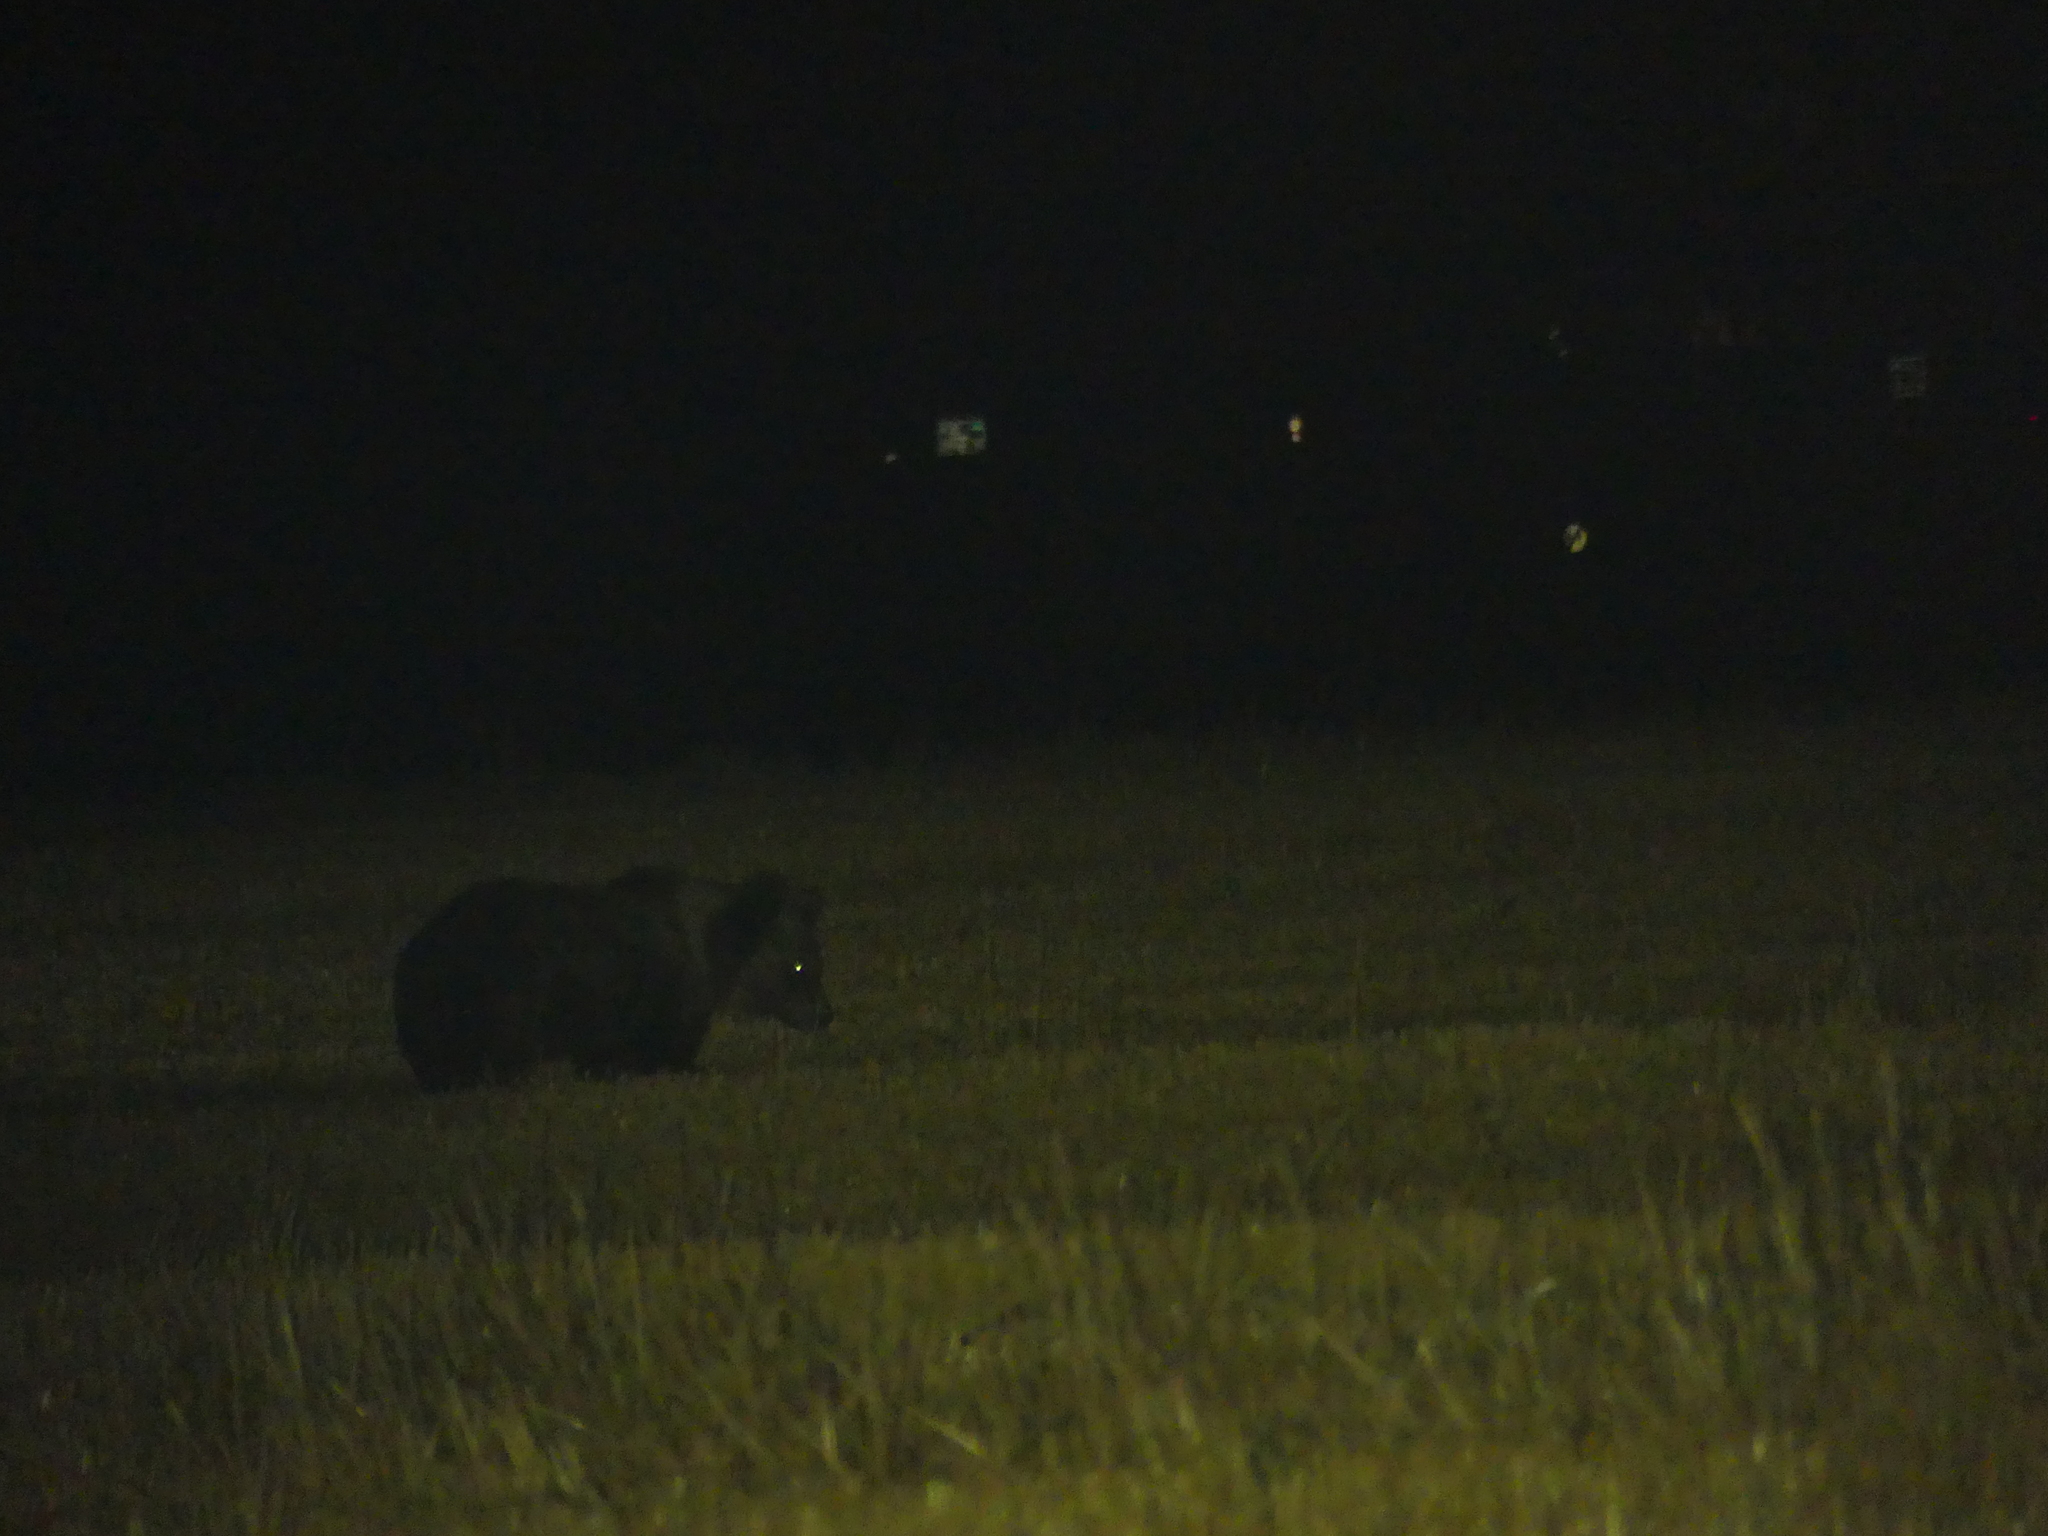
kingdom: Animalia
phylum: Chordata
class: Mammalia
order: Carnivora
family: Ursidae
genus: Ursus
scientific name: Ursus arctos
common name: Brown bear
